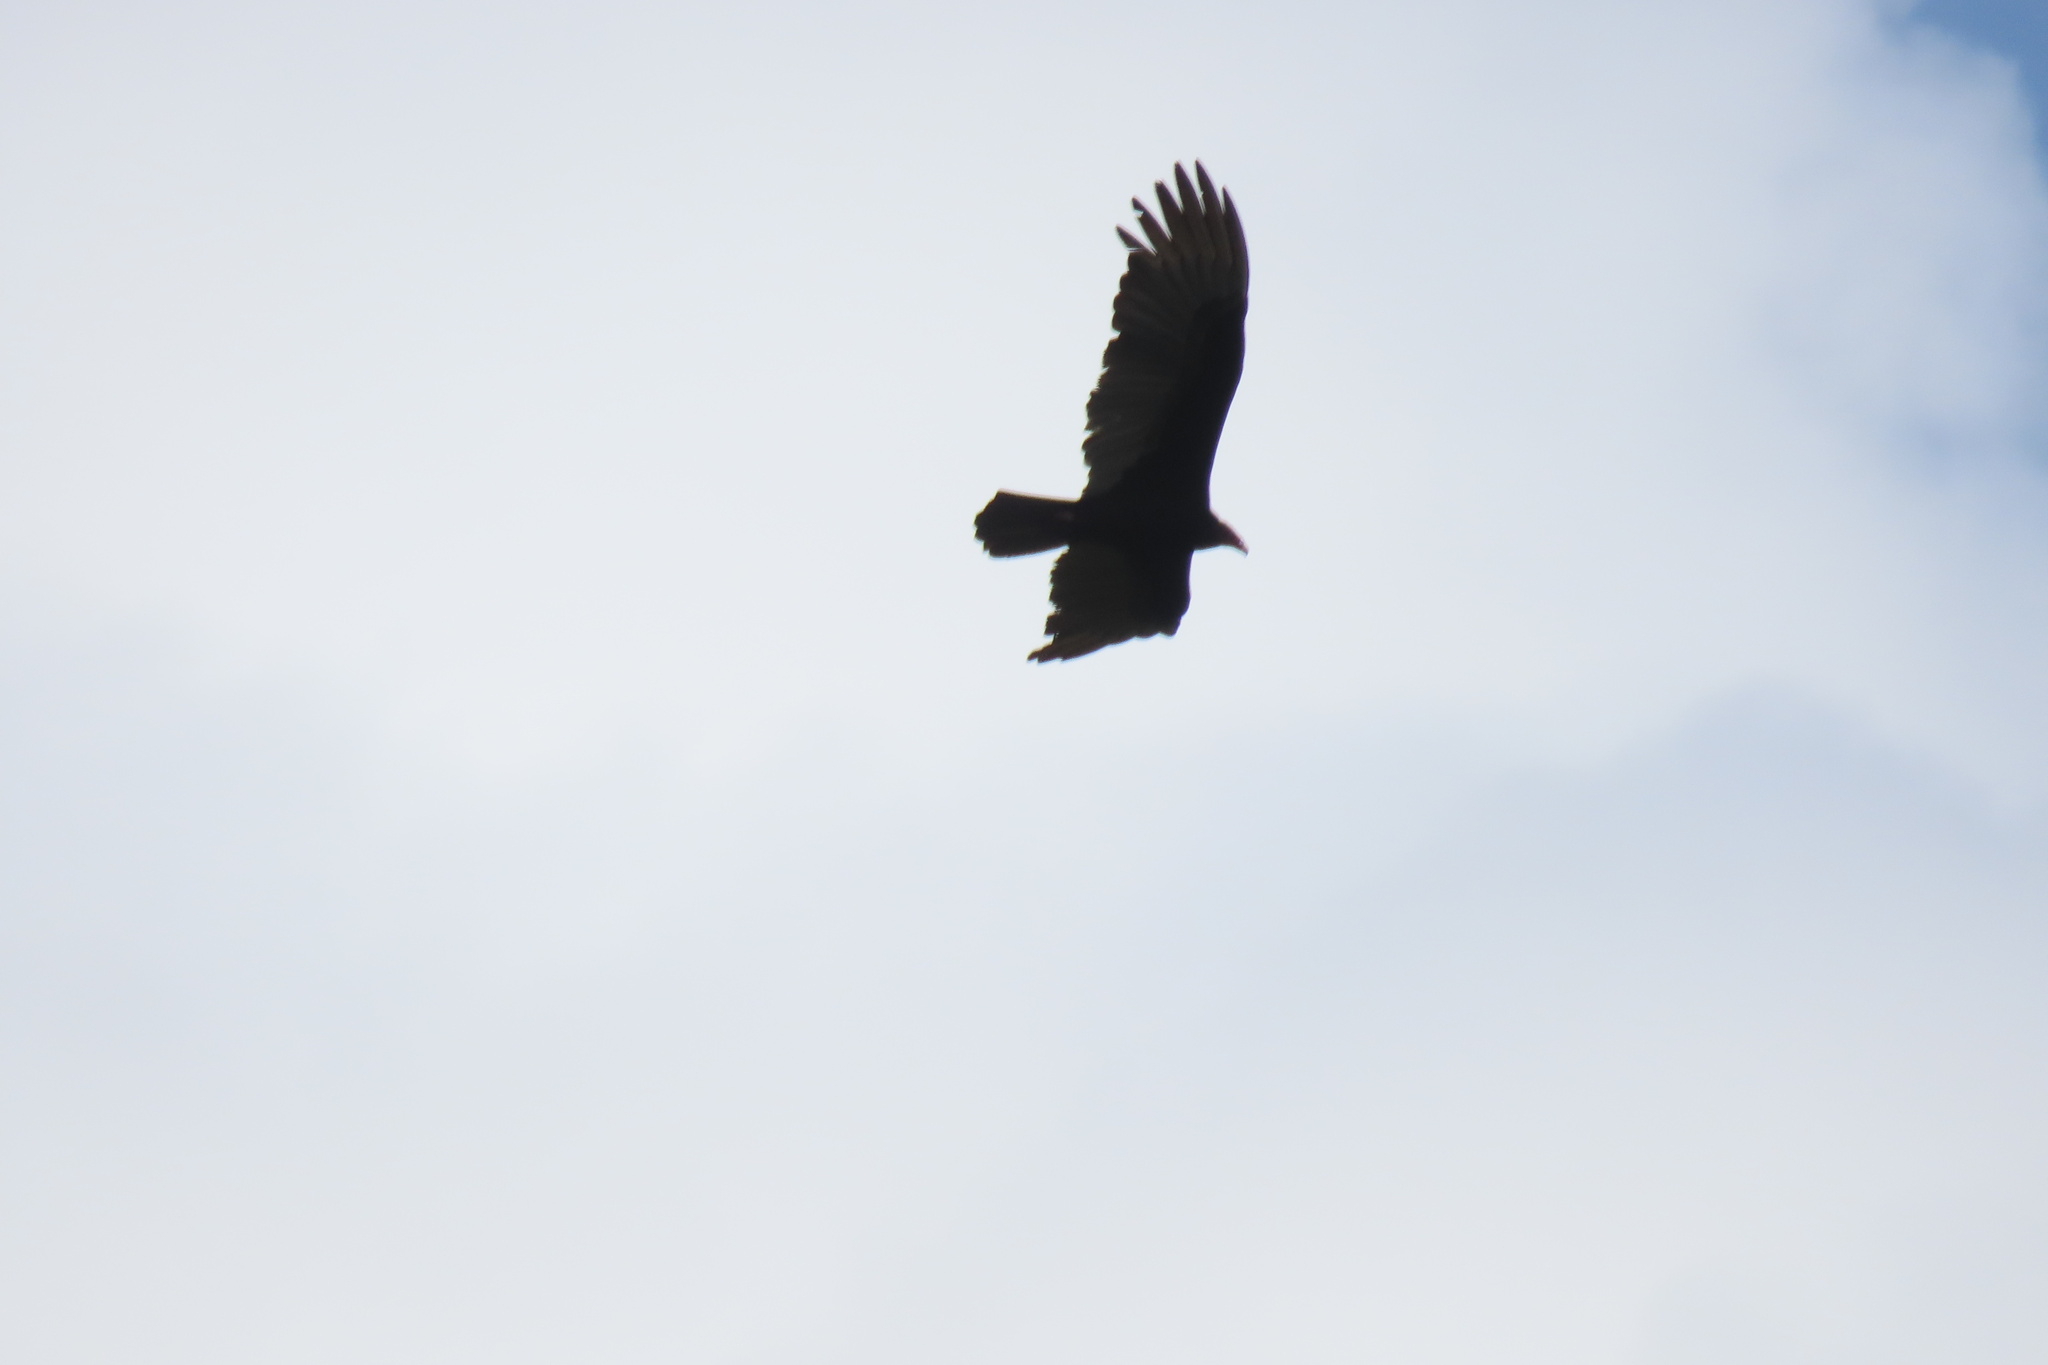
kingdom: Animalia
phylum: Chordata
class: Aves
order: Accipitriformes
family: Cathartidae
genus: Cathartes
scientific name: Cathartes aura
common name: Turkey vulture
